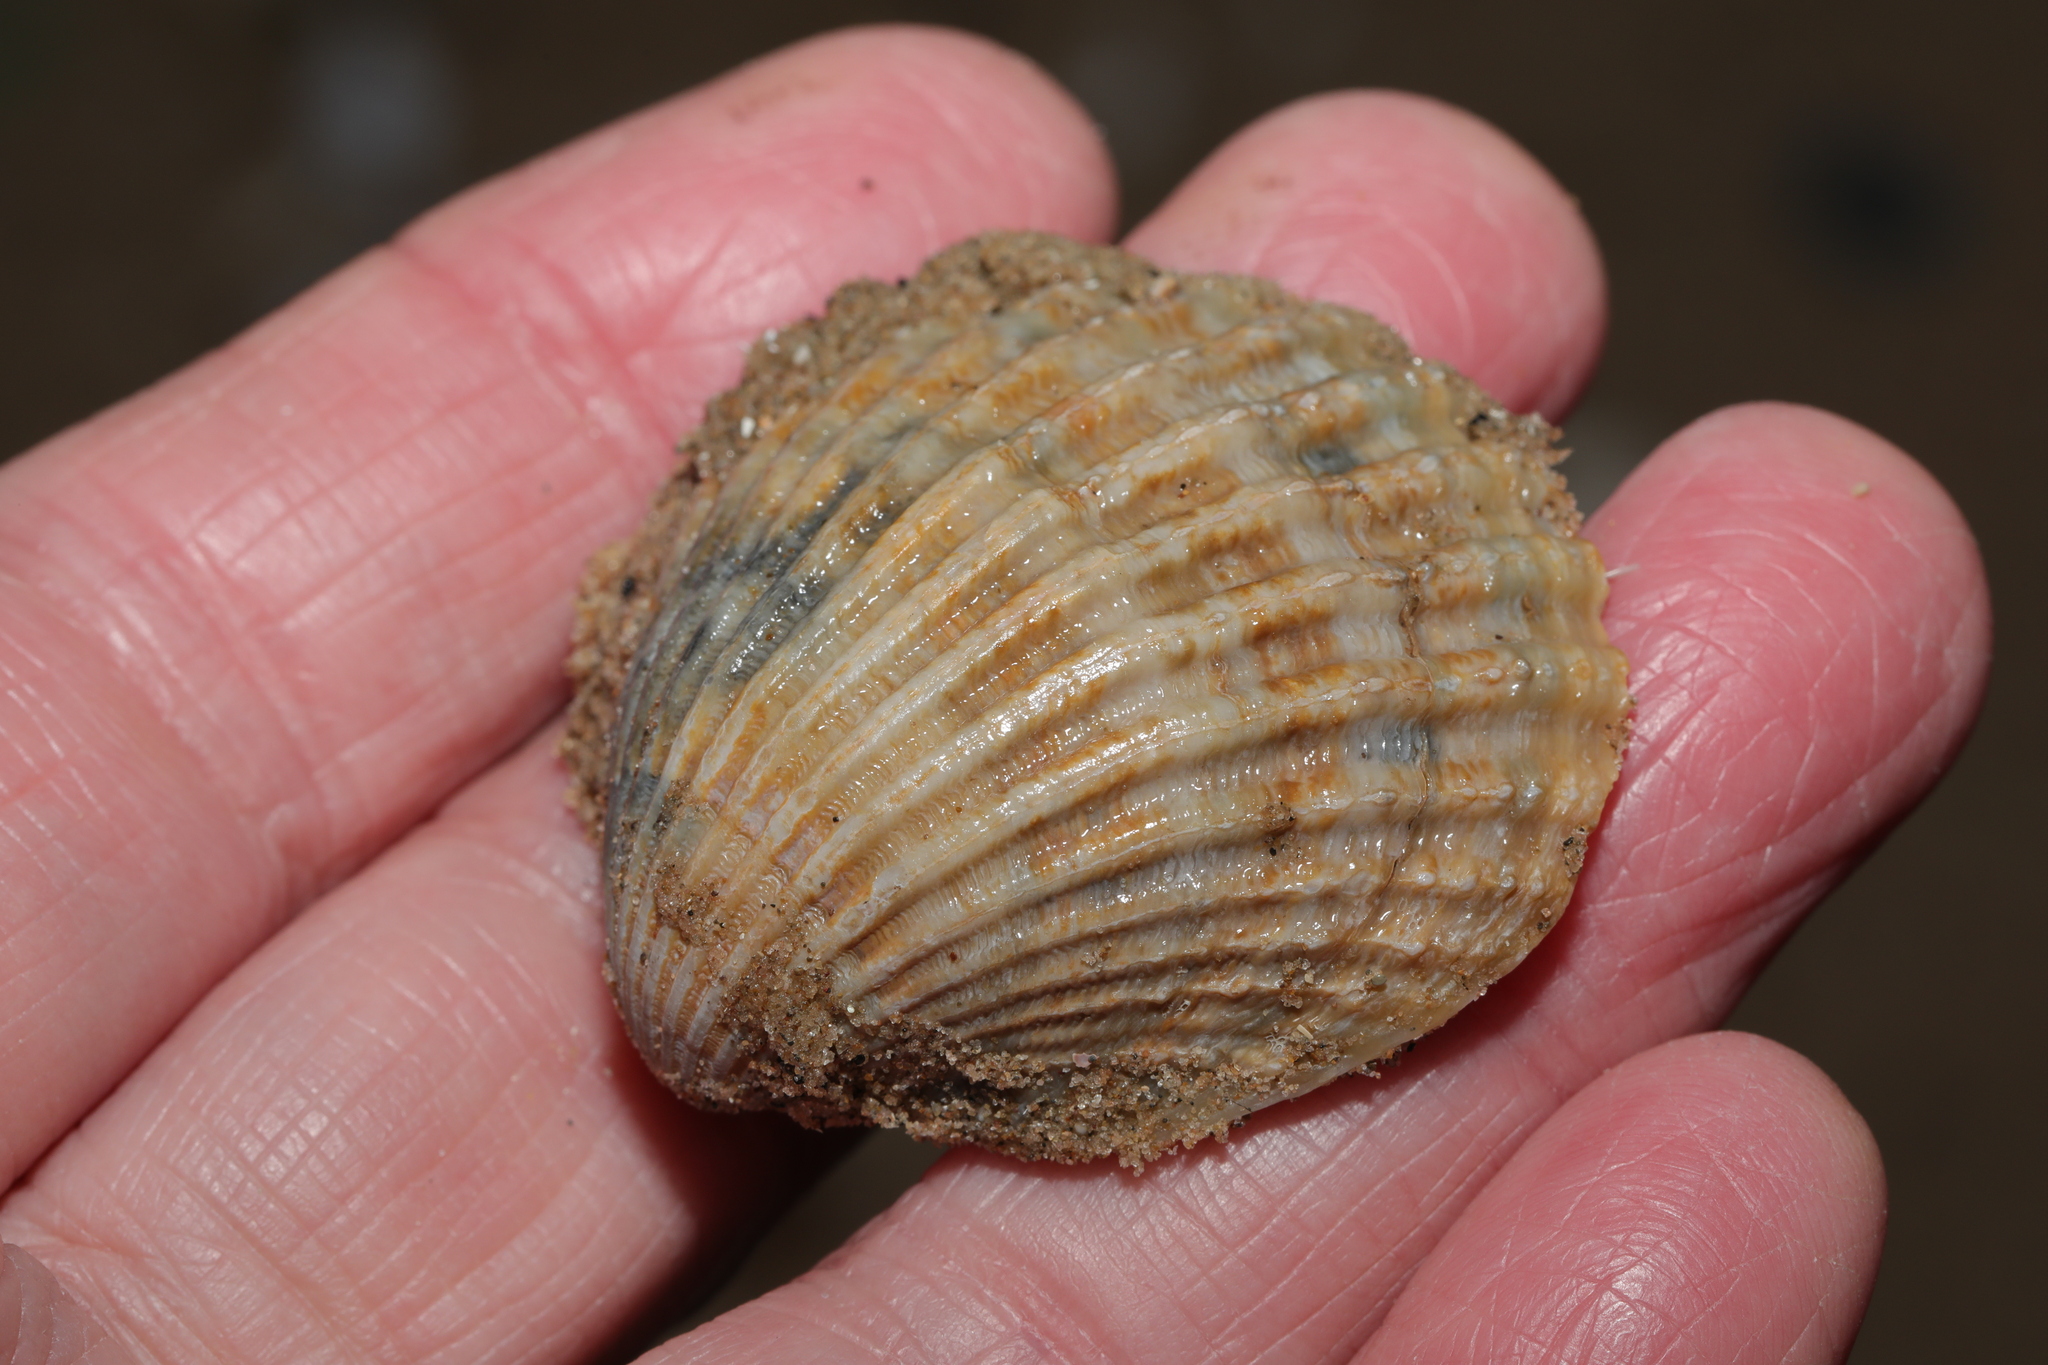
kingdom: Animalia
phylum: Mollusca
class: Bivalvia
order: Cardiida
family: Cardiidae
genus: Acanthocardia
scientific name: Acanthocardia echinata
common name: Prickly cockle
